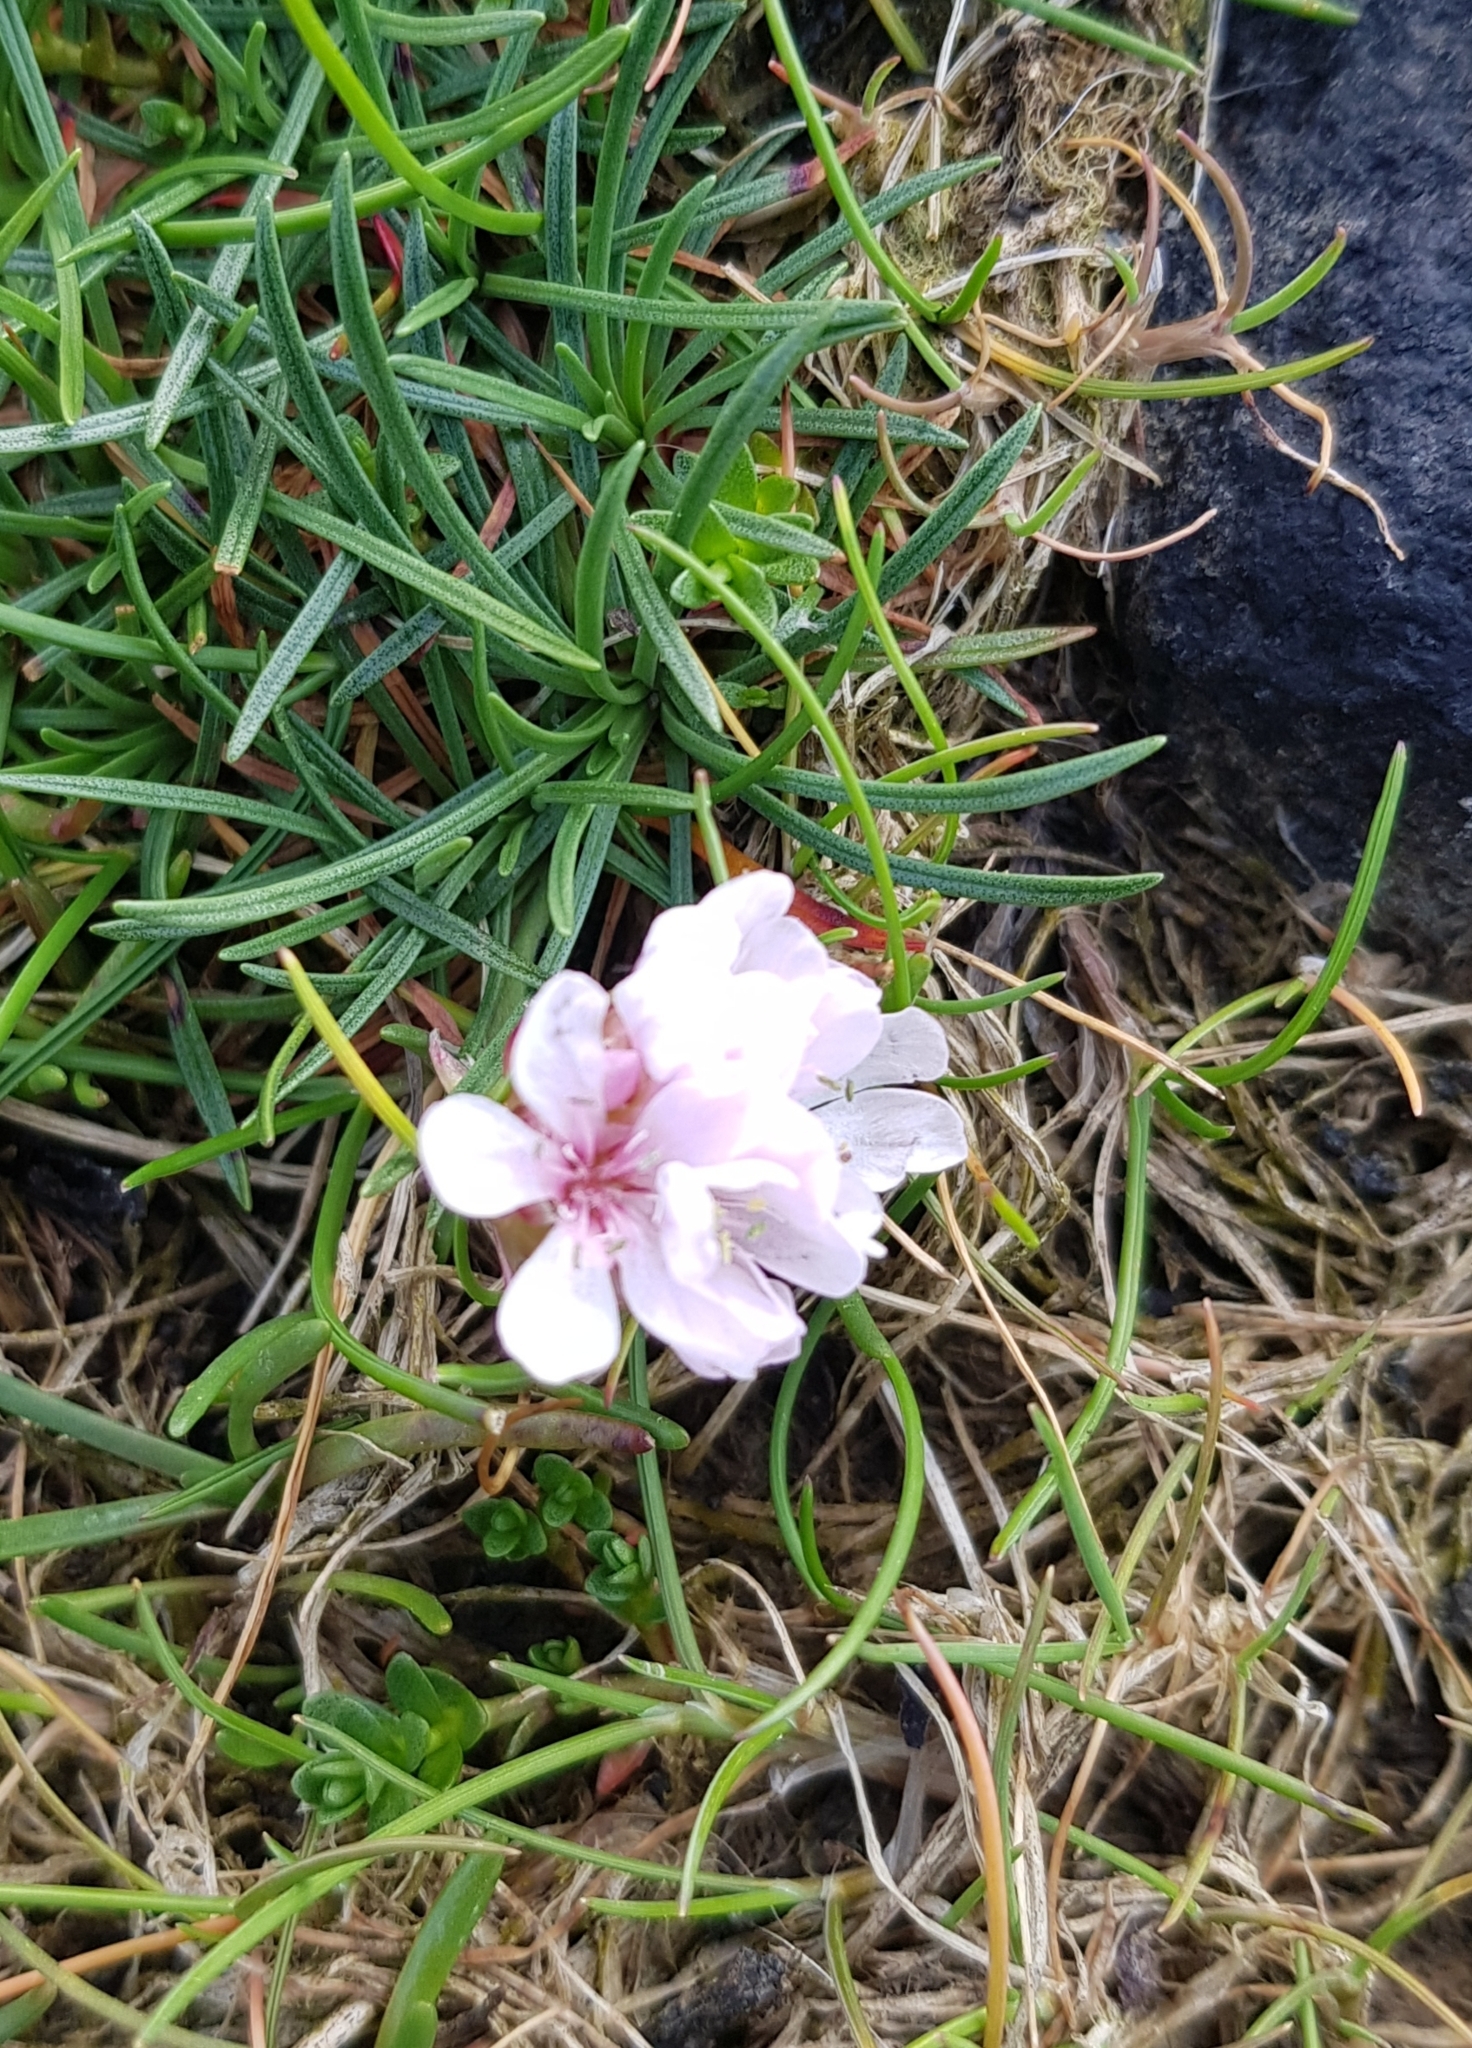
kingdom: Plantae
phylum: Tracheophyta
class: Magnoliopsida
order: Caryophyllales
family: Plumbaginaceae
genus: Armeria
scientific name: Armeria maritima
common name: Thrift
